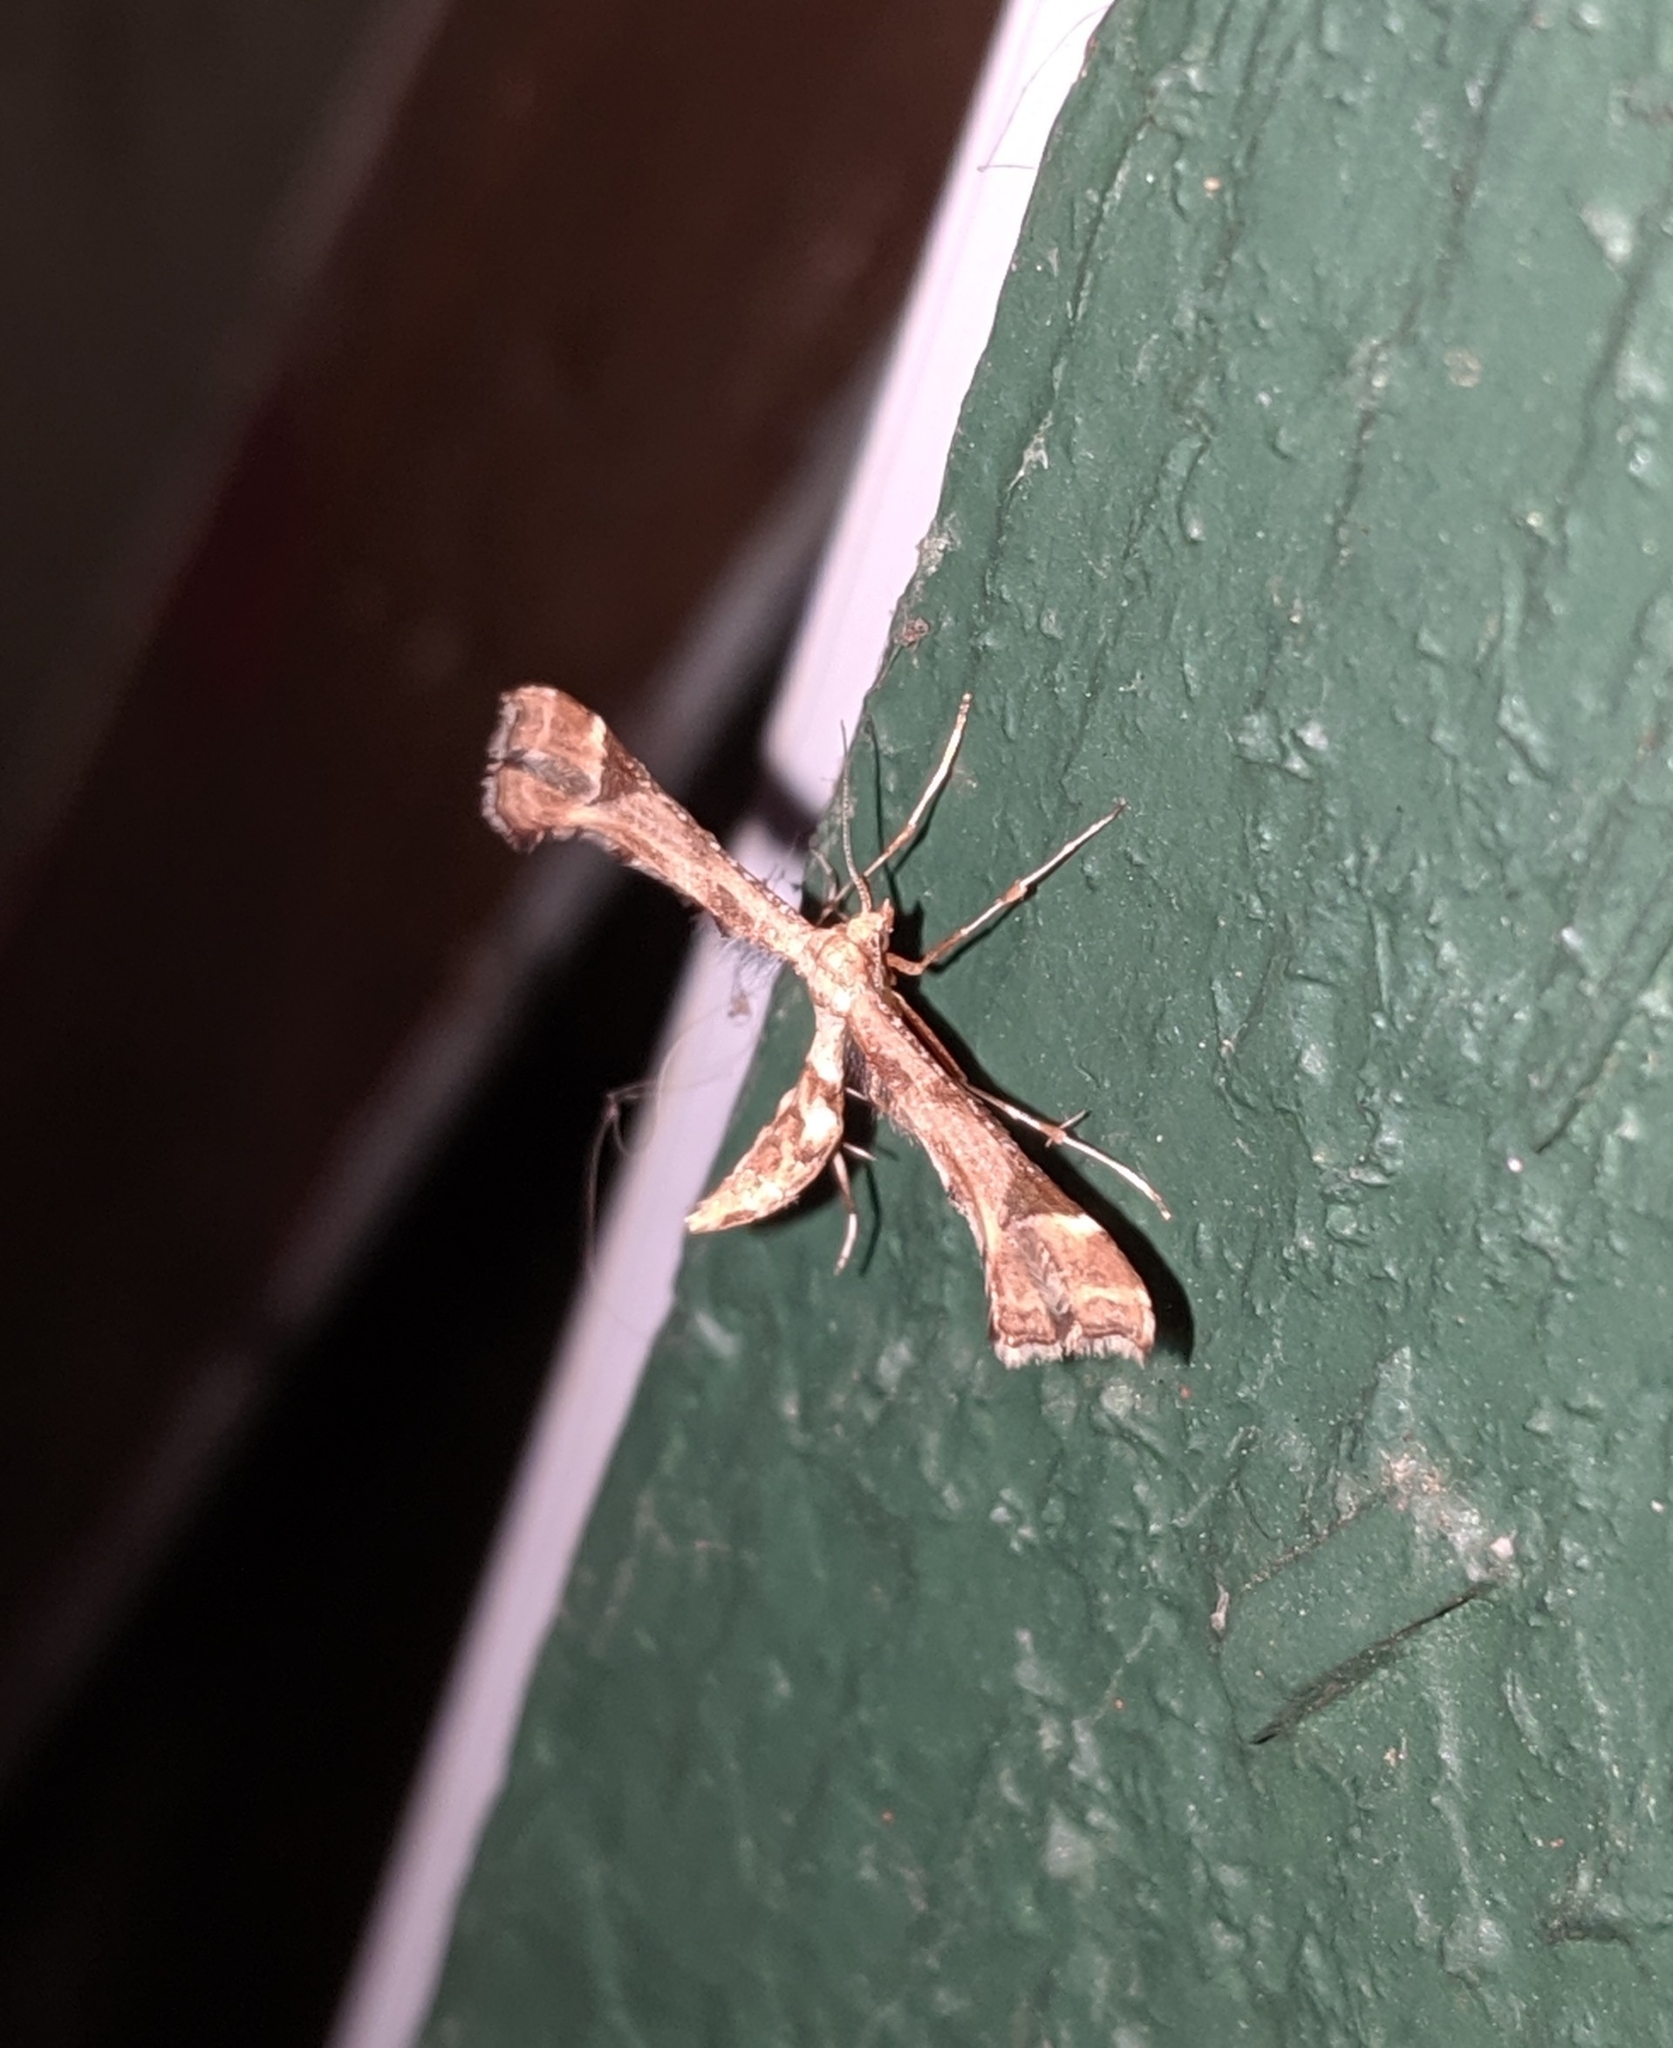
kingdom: Animalia
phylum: Arthropoda
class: Insecta
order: Lepidoptera
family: Pterophoridae
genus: Platyptilia
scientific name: Platyptilia carduidactylus
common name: Artichoke plume moth
